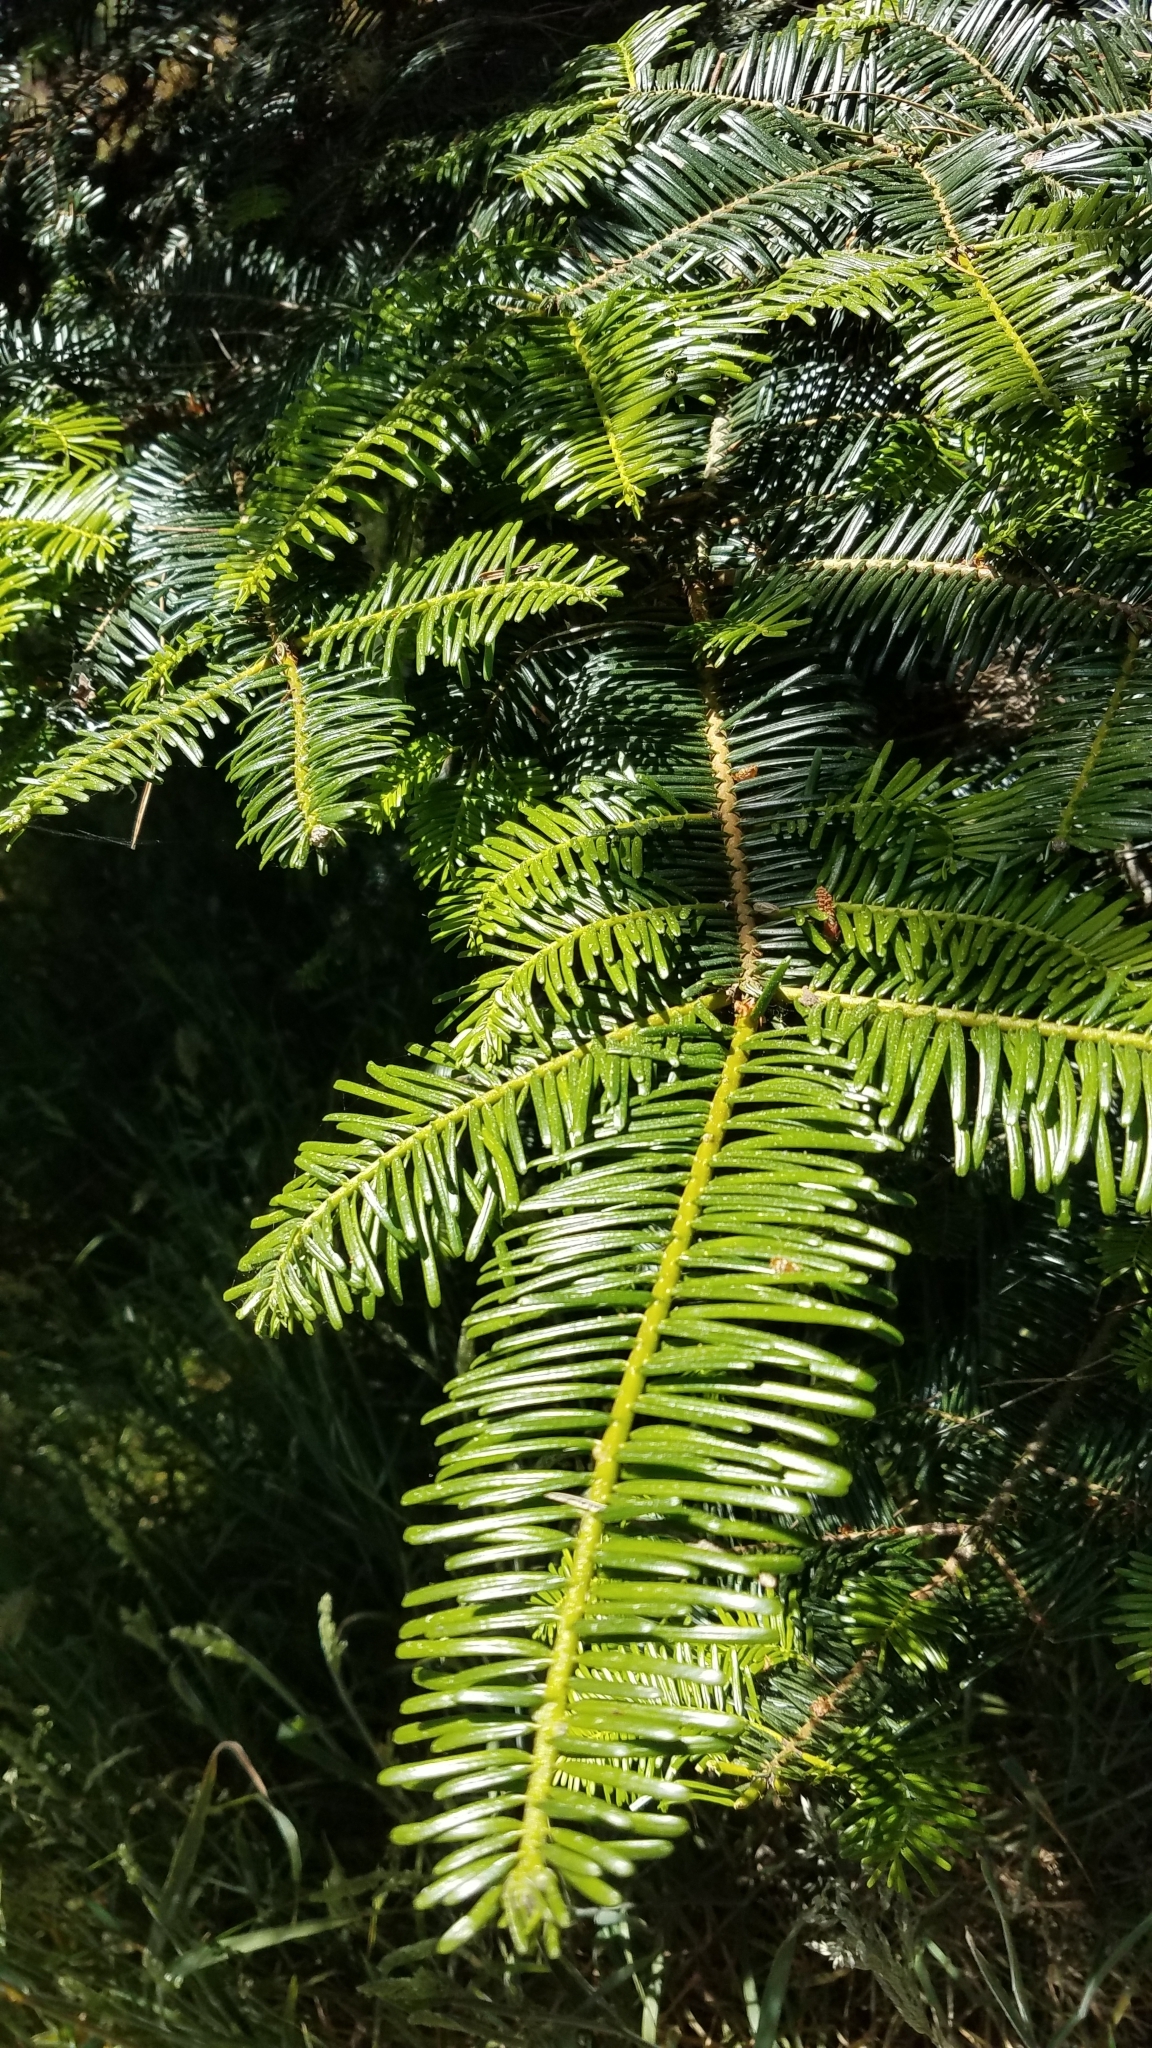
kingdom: Plantae
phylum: Tracheophyta
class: Pinopsida
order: Pinales
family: Pinaceae
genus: Abies
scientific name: Abies grandis
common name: Giant fir
